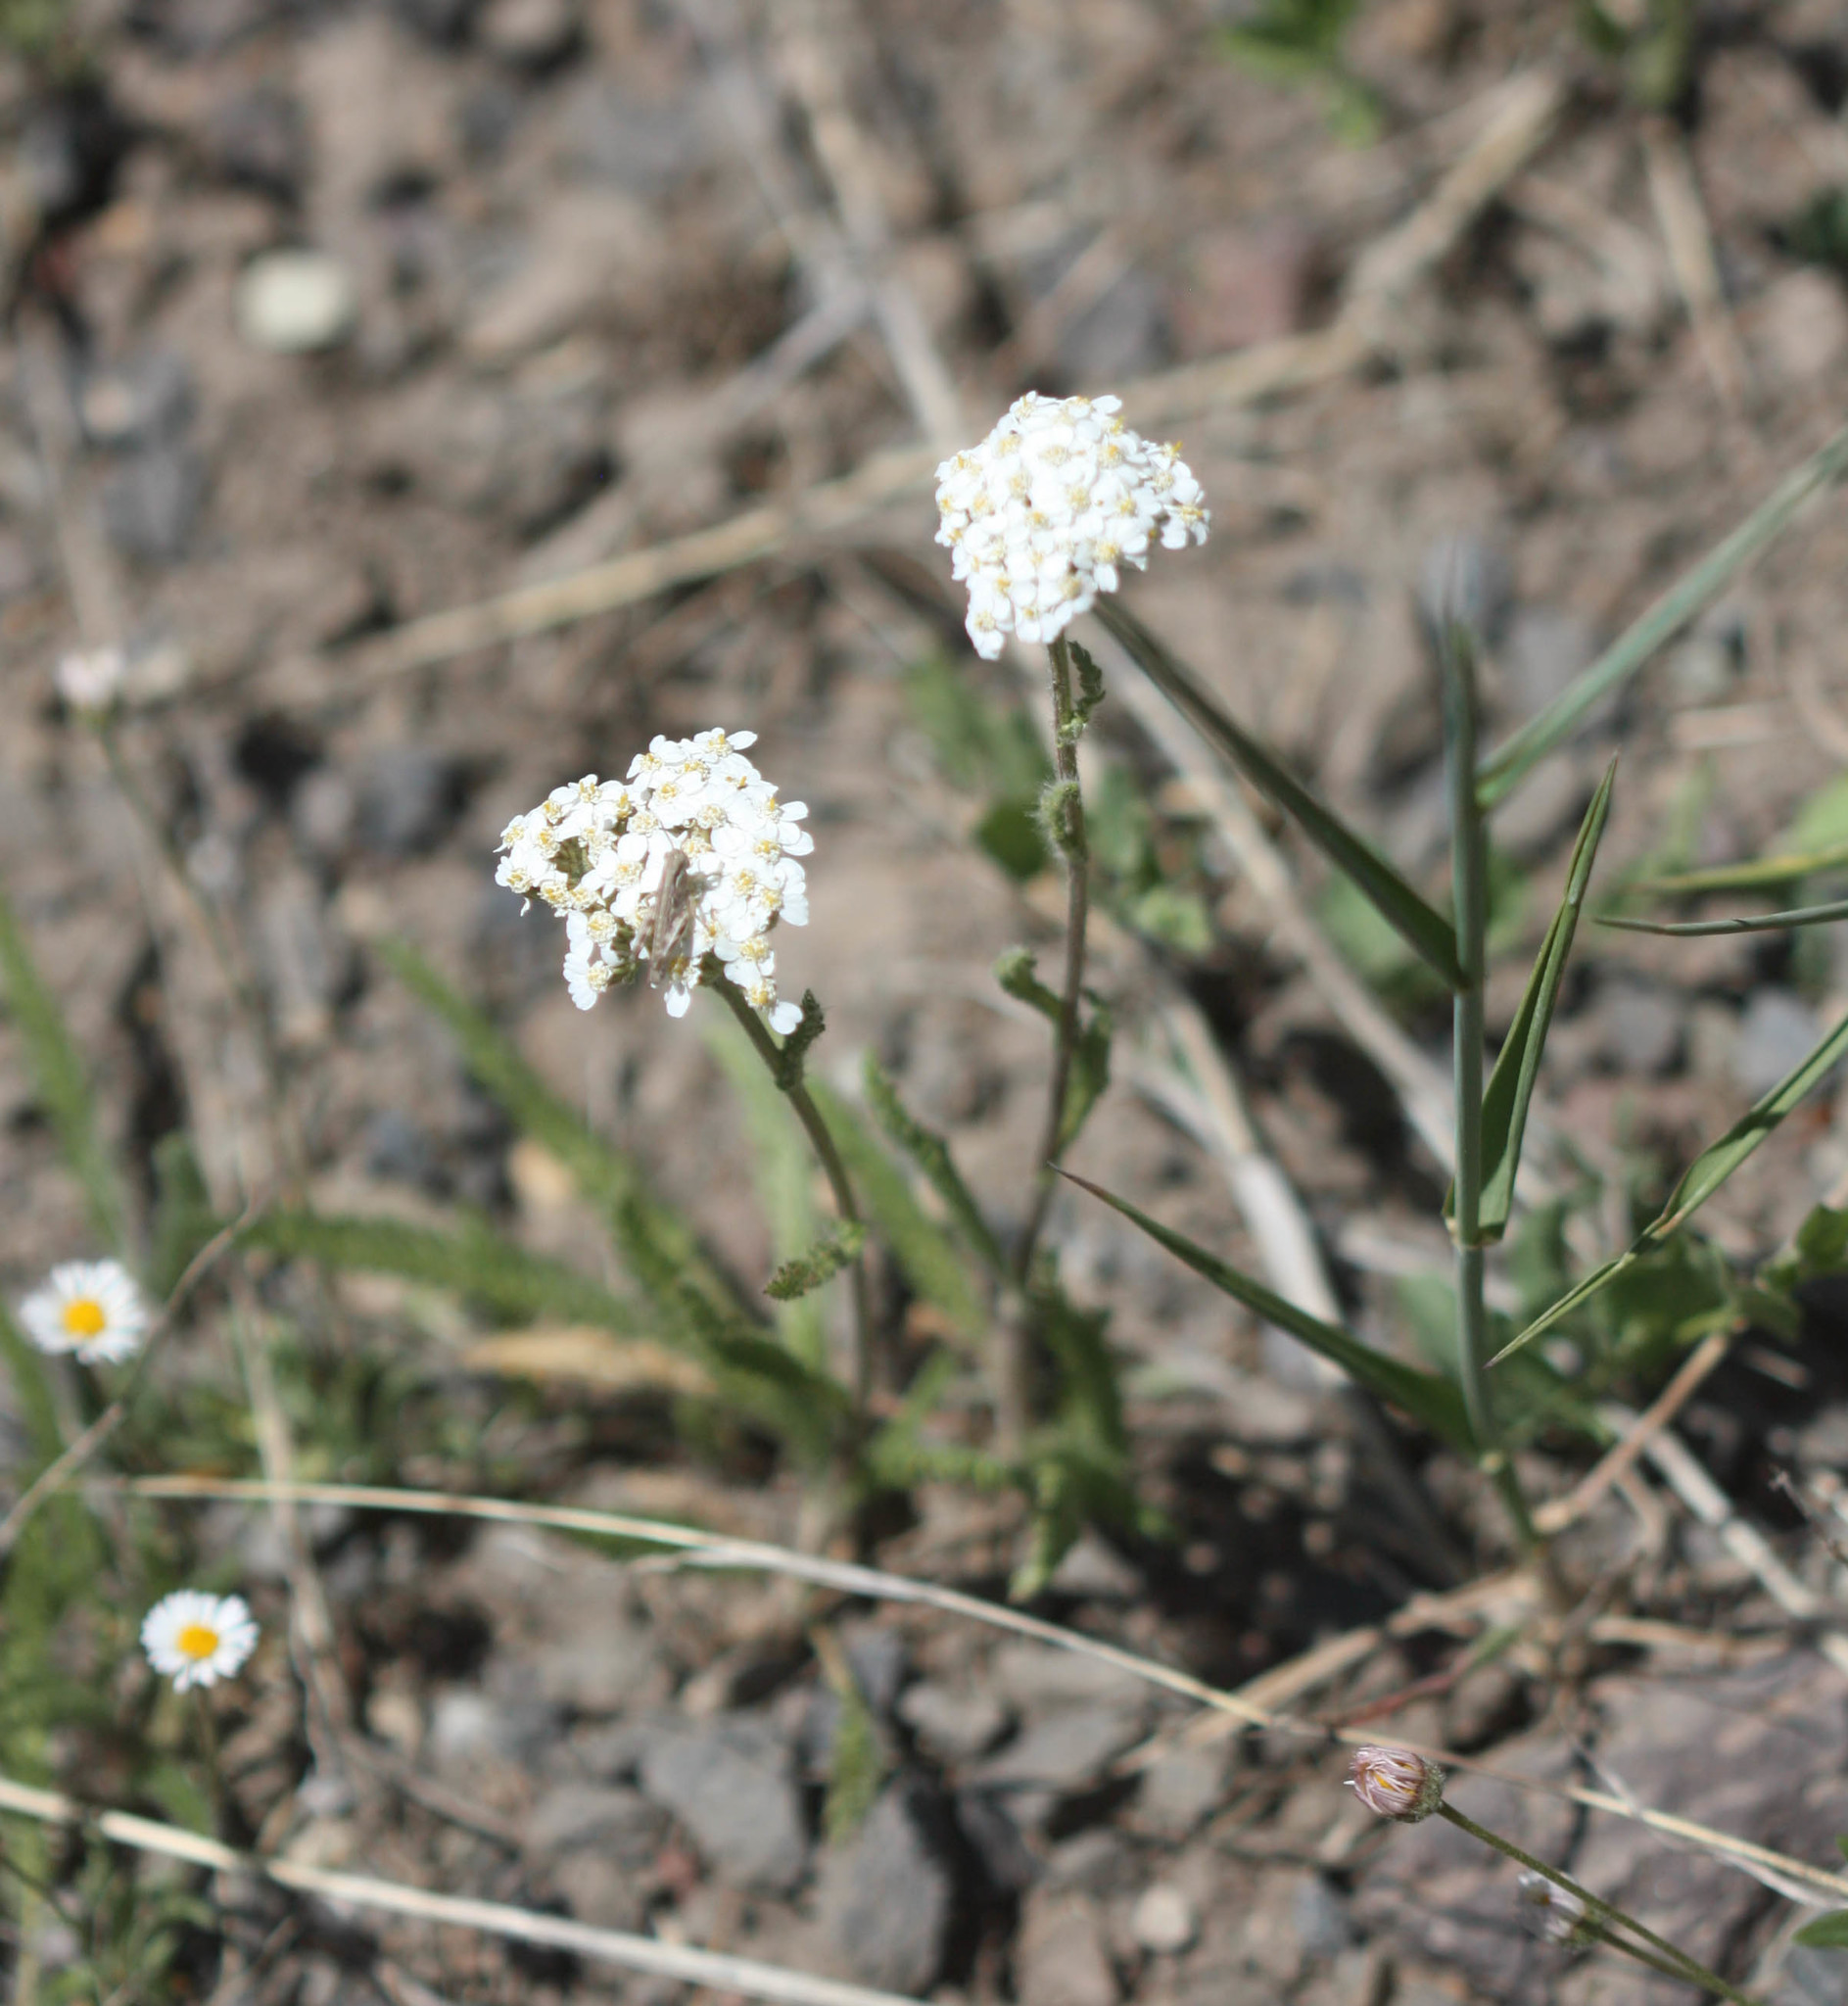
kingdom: Plantae
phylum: Tracheophyta
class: Magnoliopsida
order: Asterales
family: Asteraceae
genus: Achillea
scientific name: Achillea millefolium
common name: Yarrow
